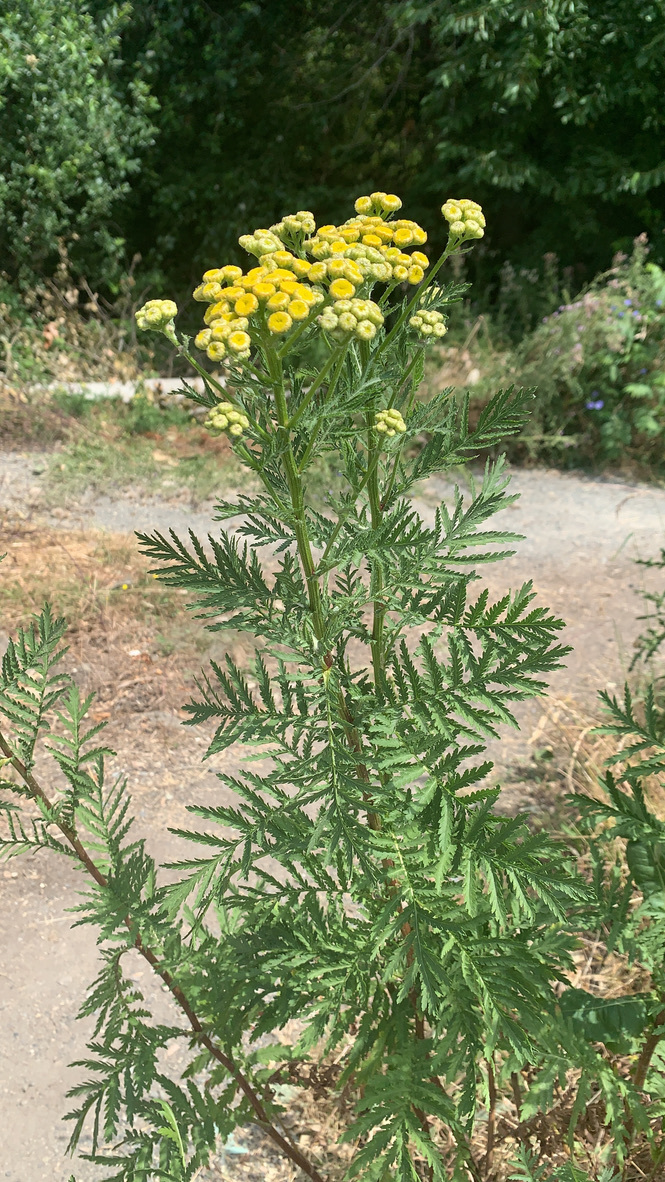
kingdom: Plantae
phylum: Tracheophyta
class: Magnoliopsida
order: Asterales
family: Asteraceae
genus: Tanacetum
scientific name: Tanacetum vulgare
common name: Common tansy
